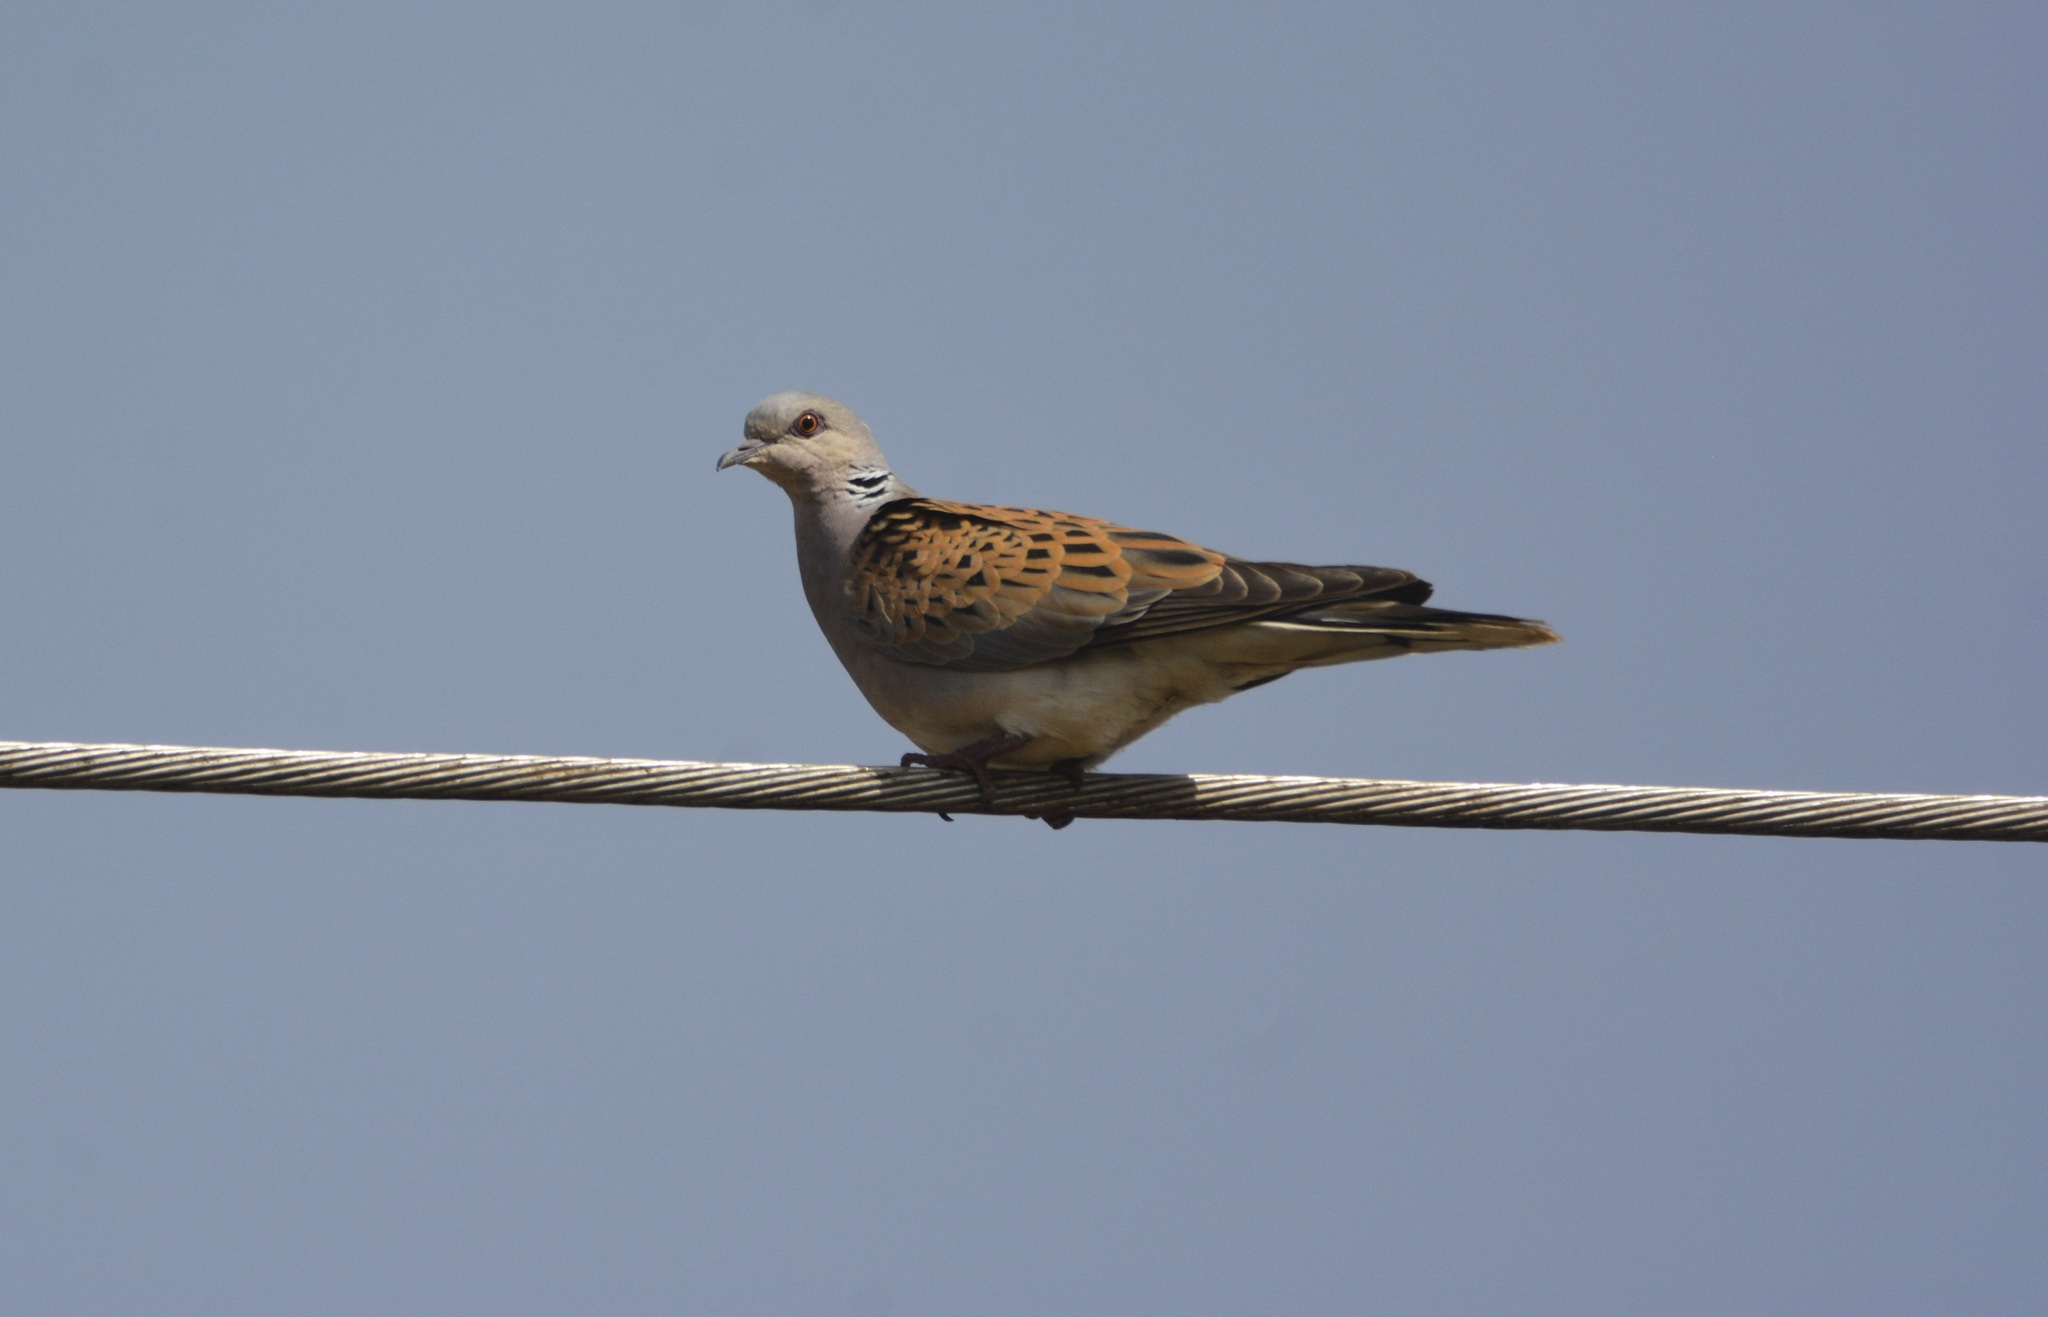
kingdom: Animalia
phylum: Chordata
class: Aves
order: Columbiformes
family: Columbidae
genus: Streptopelia
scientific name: Streptopelia turtur
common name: European turtle dove
